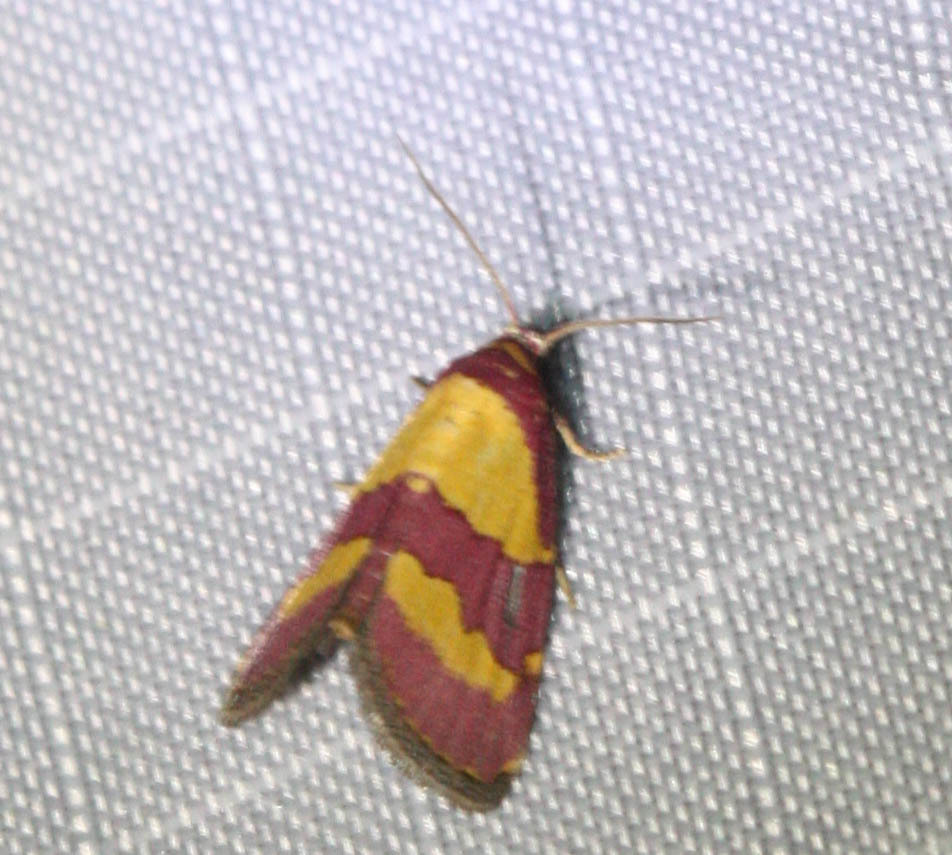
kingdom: Animalia
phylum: Arthropoda
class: Insecta
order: Lepidoptera
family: Noctuidae
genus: Phoenicophanta
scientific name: Phoenicophanta bicolor
